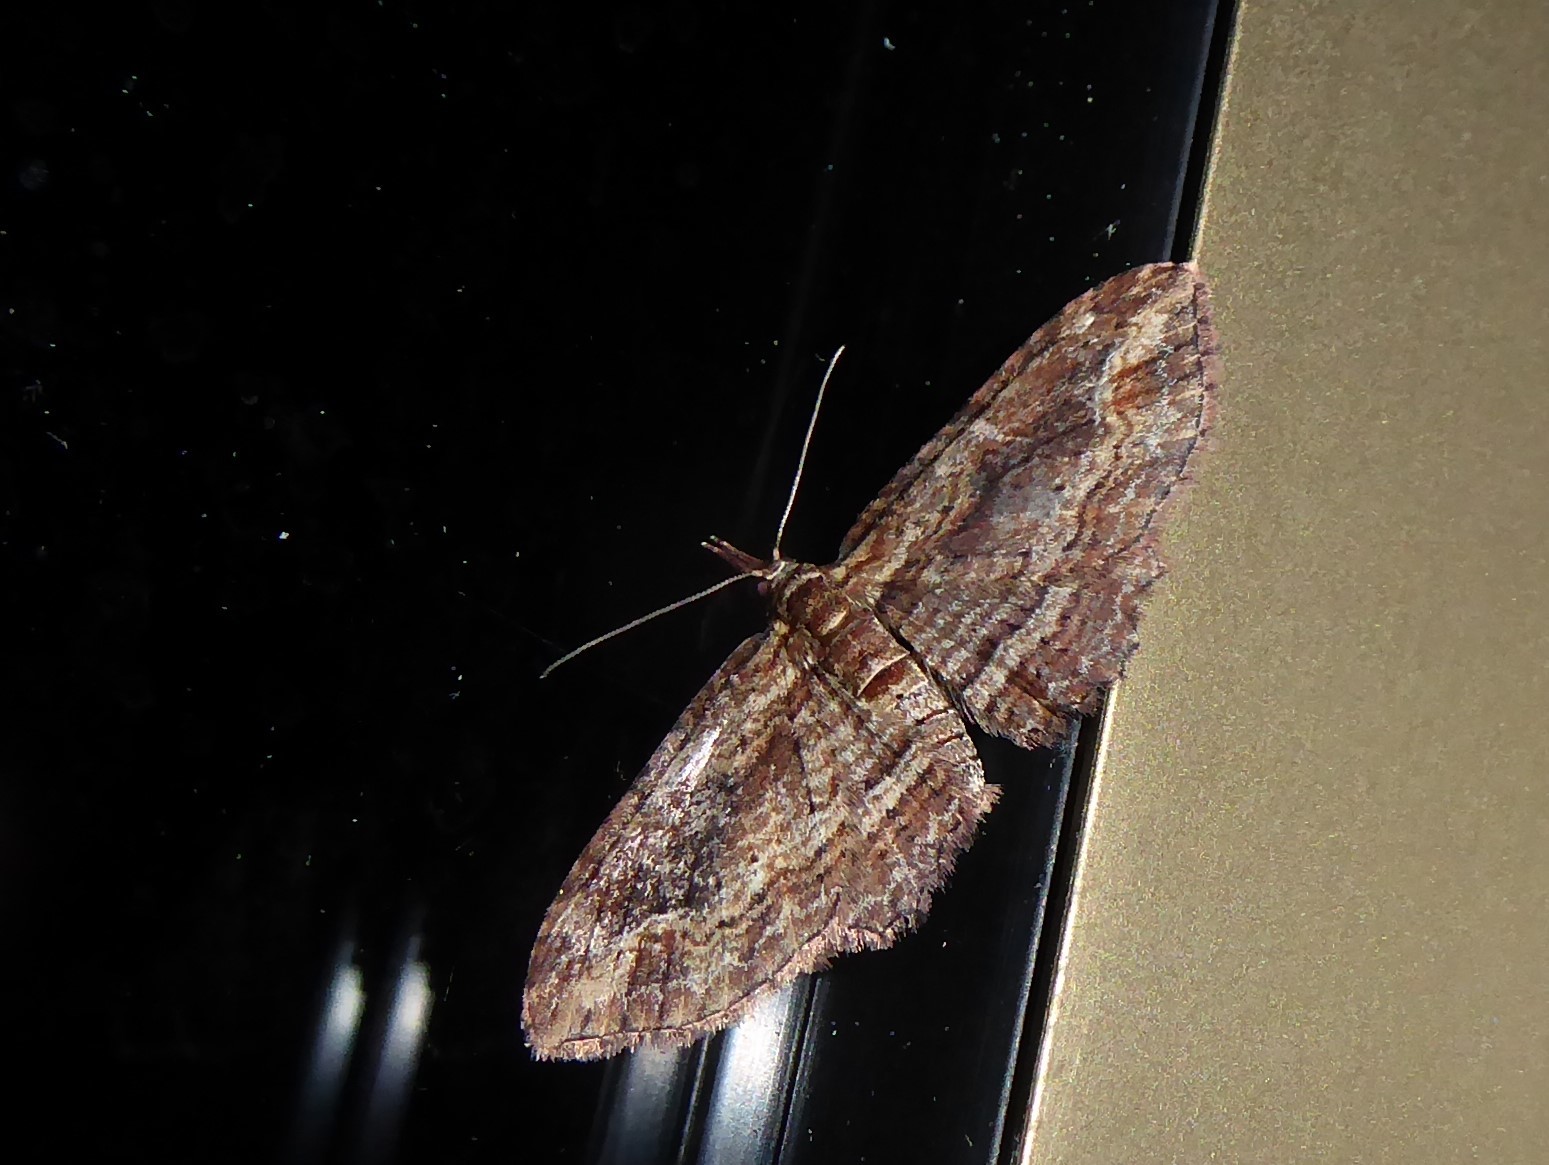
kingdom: Animalia
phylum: Arthropoda
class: Insecta
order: Lepidoptera
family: Geometridae
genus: Chloroclystis
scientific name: Chloroclystis filata
